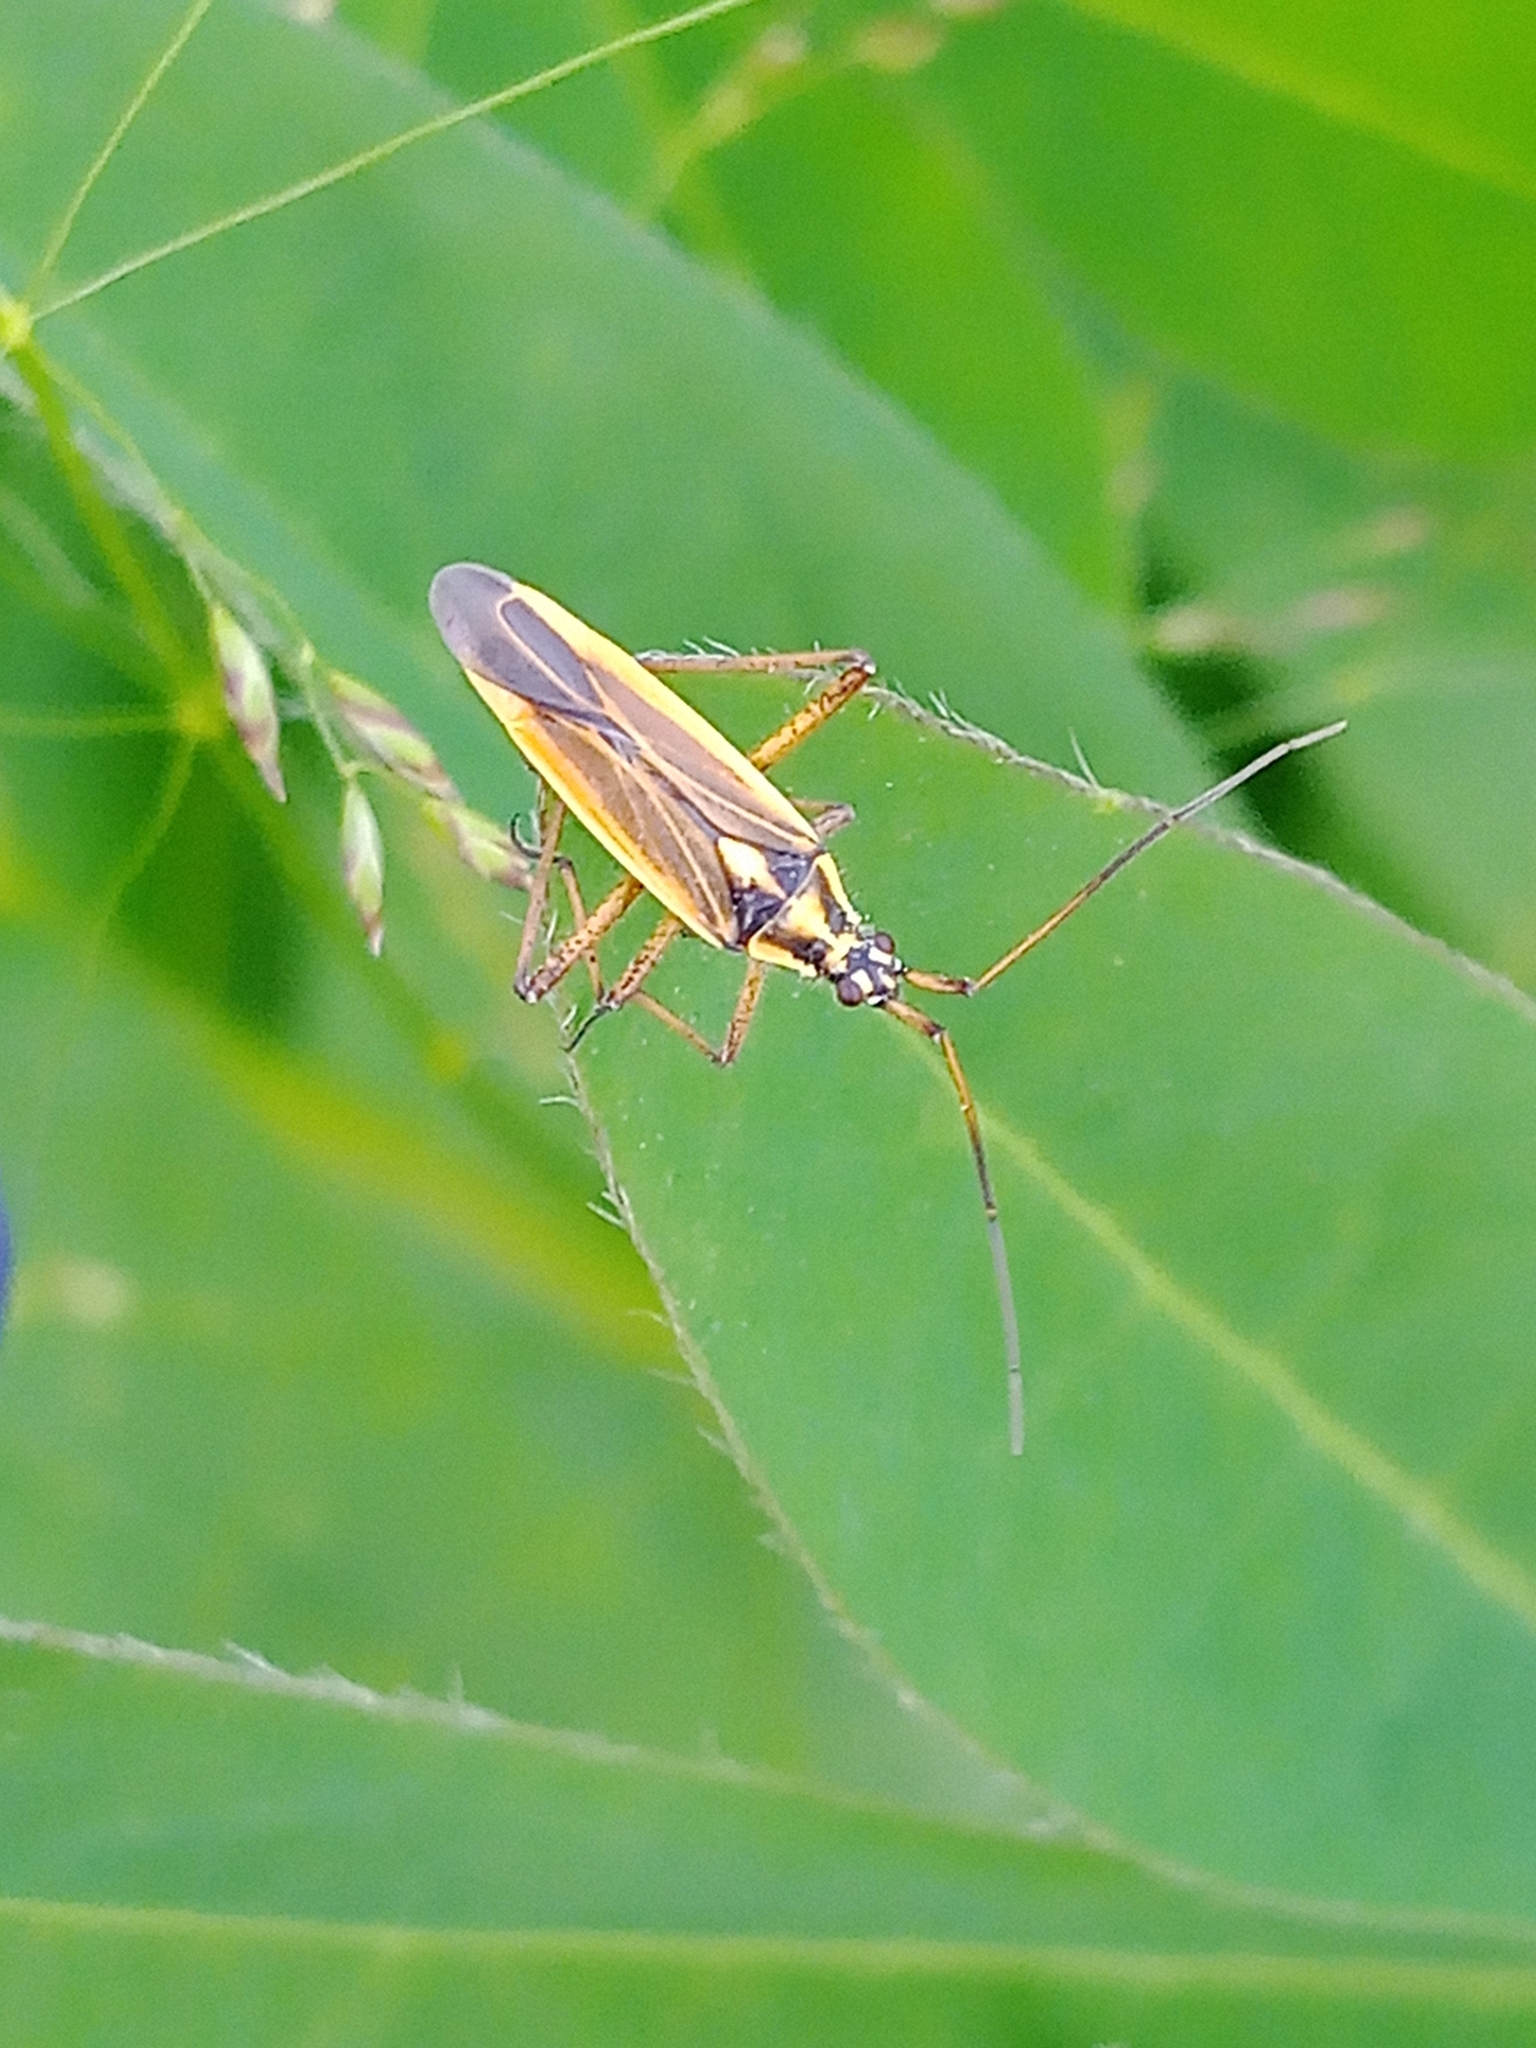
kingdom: Animalia
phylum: Arthropoda
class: Insecta
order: Hemiptera
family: Miridae
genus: Leptopterna
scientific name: Leptopterna dolabrata
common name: Meadow plant bug
